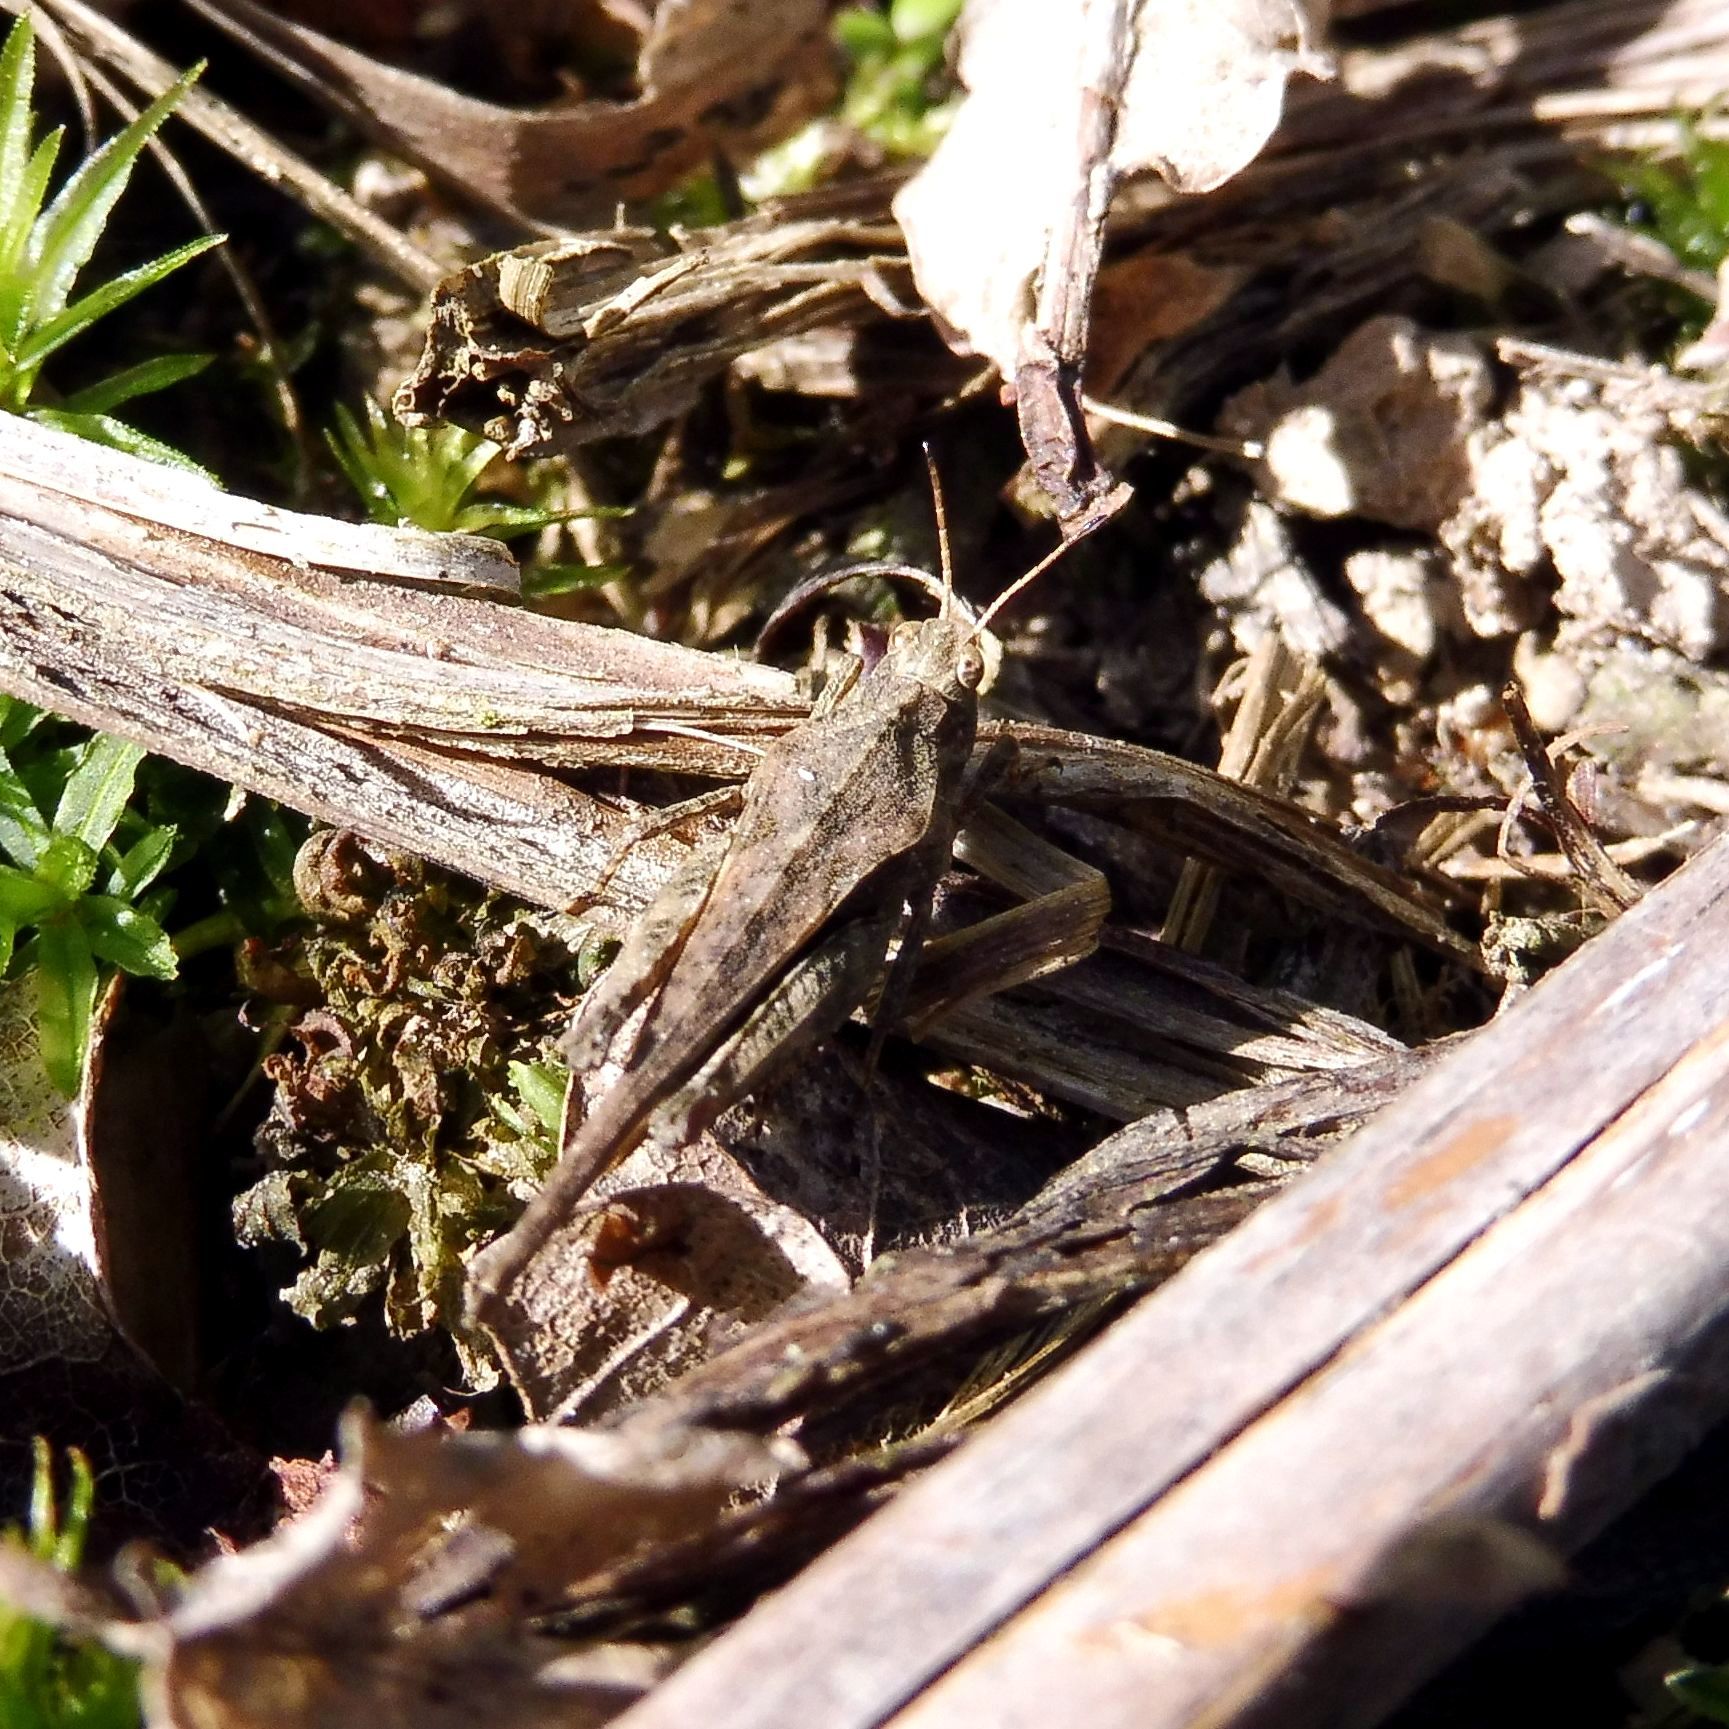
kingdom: Animalia
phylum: Arthropoda
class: Insecta
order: Orthoptera
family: Tetrigidae
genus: Tetrix
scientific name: Tetrix subulata
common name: Slender ground-hopper
